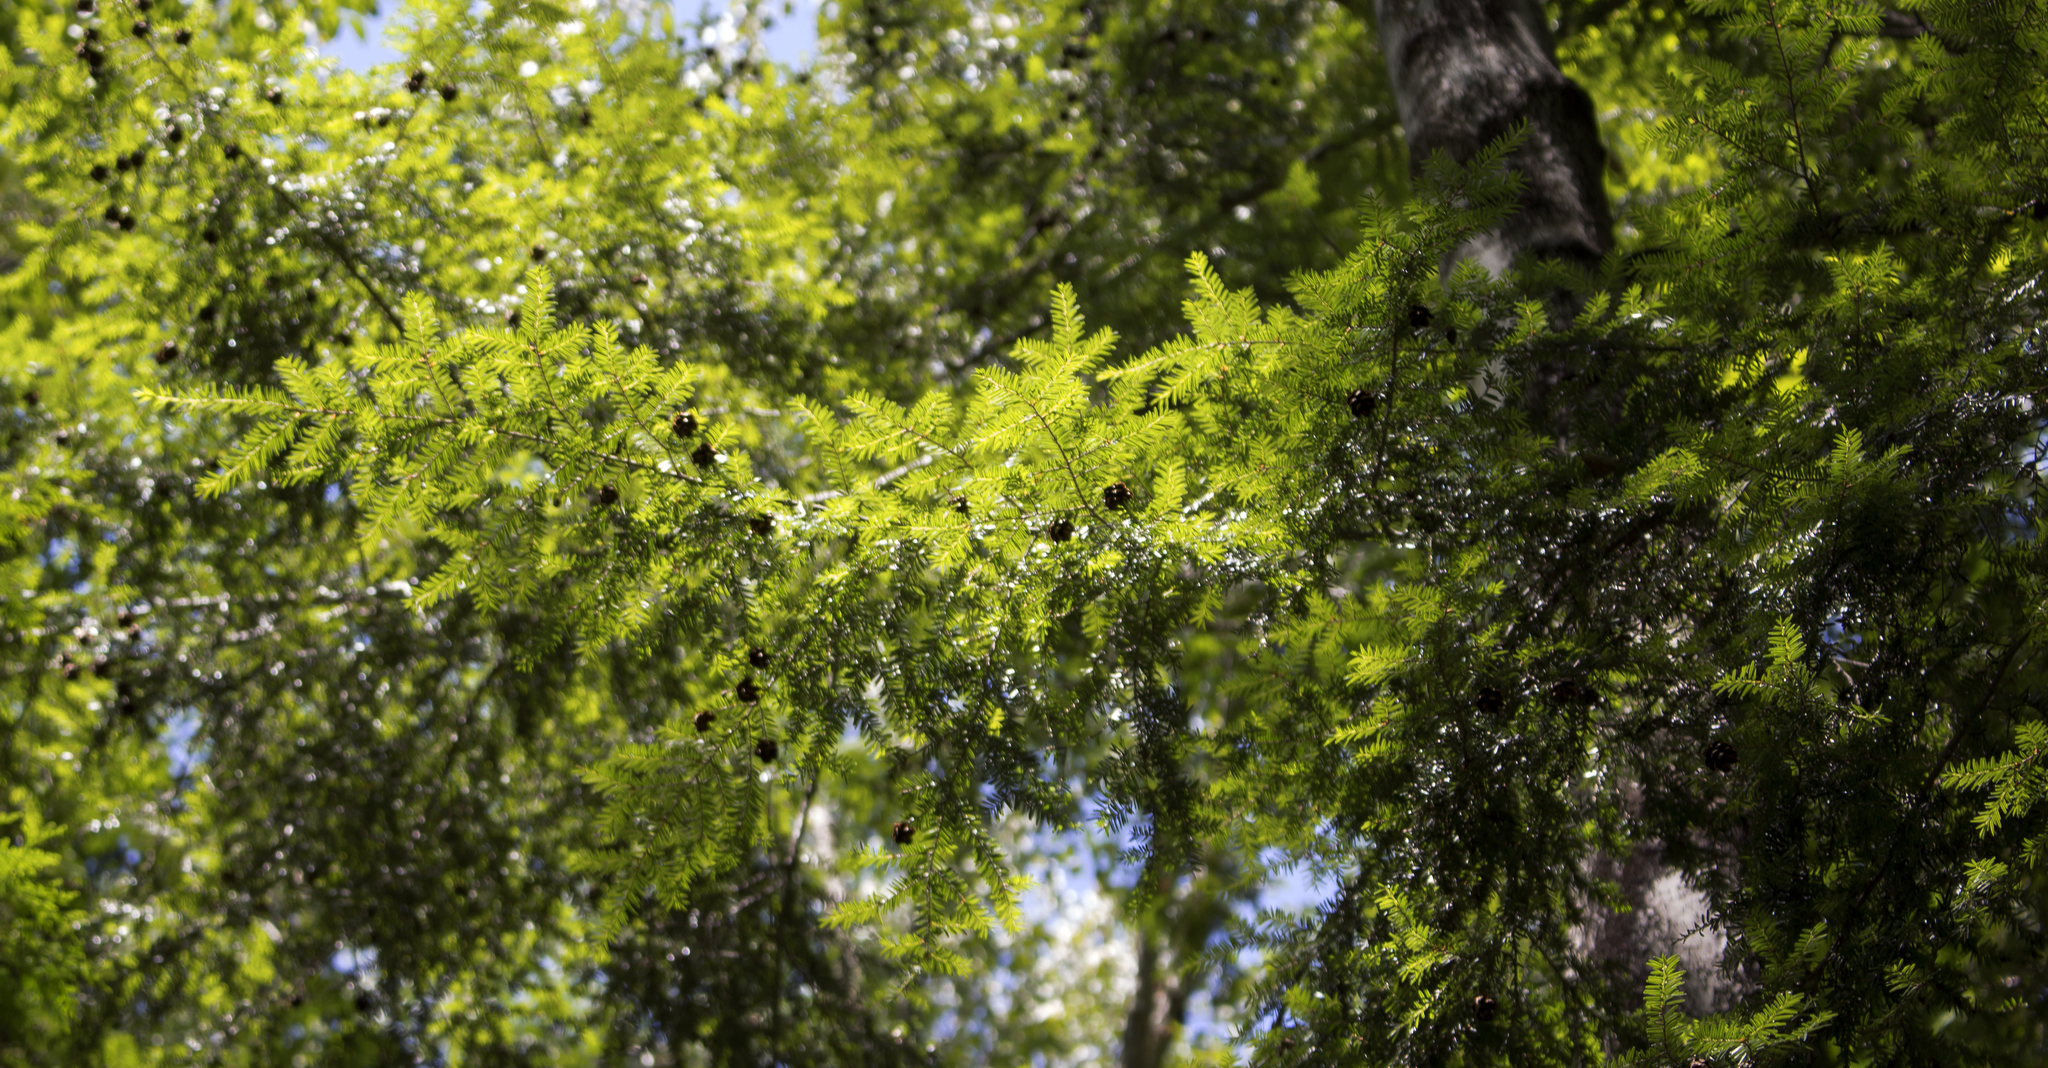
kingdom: Plantae
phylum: Tracheophyta
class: Pinopsida
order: Pinales
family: Pinaceae
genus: Tsuga
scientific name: Tsuga canadensis
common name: Eastern hemlock
